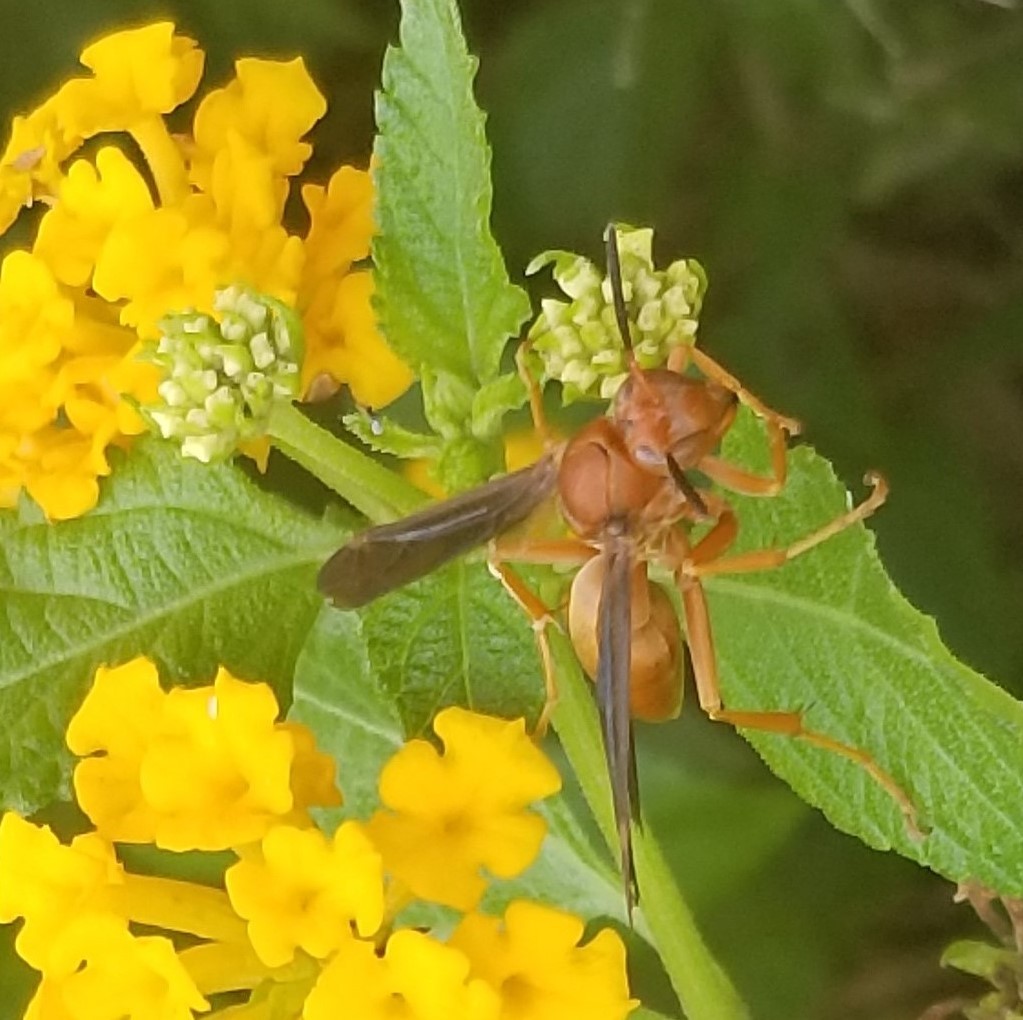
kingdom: Animalia
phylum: Arthropoda
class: Insecta
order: Hymenoptera
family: Vespidae
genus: Fuscopolistes
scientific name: Fuscopolistes
